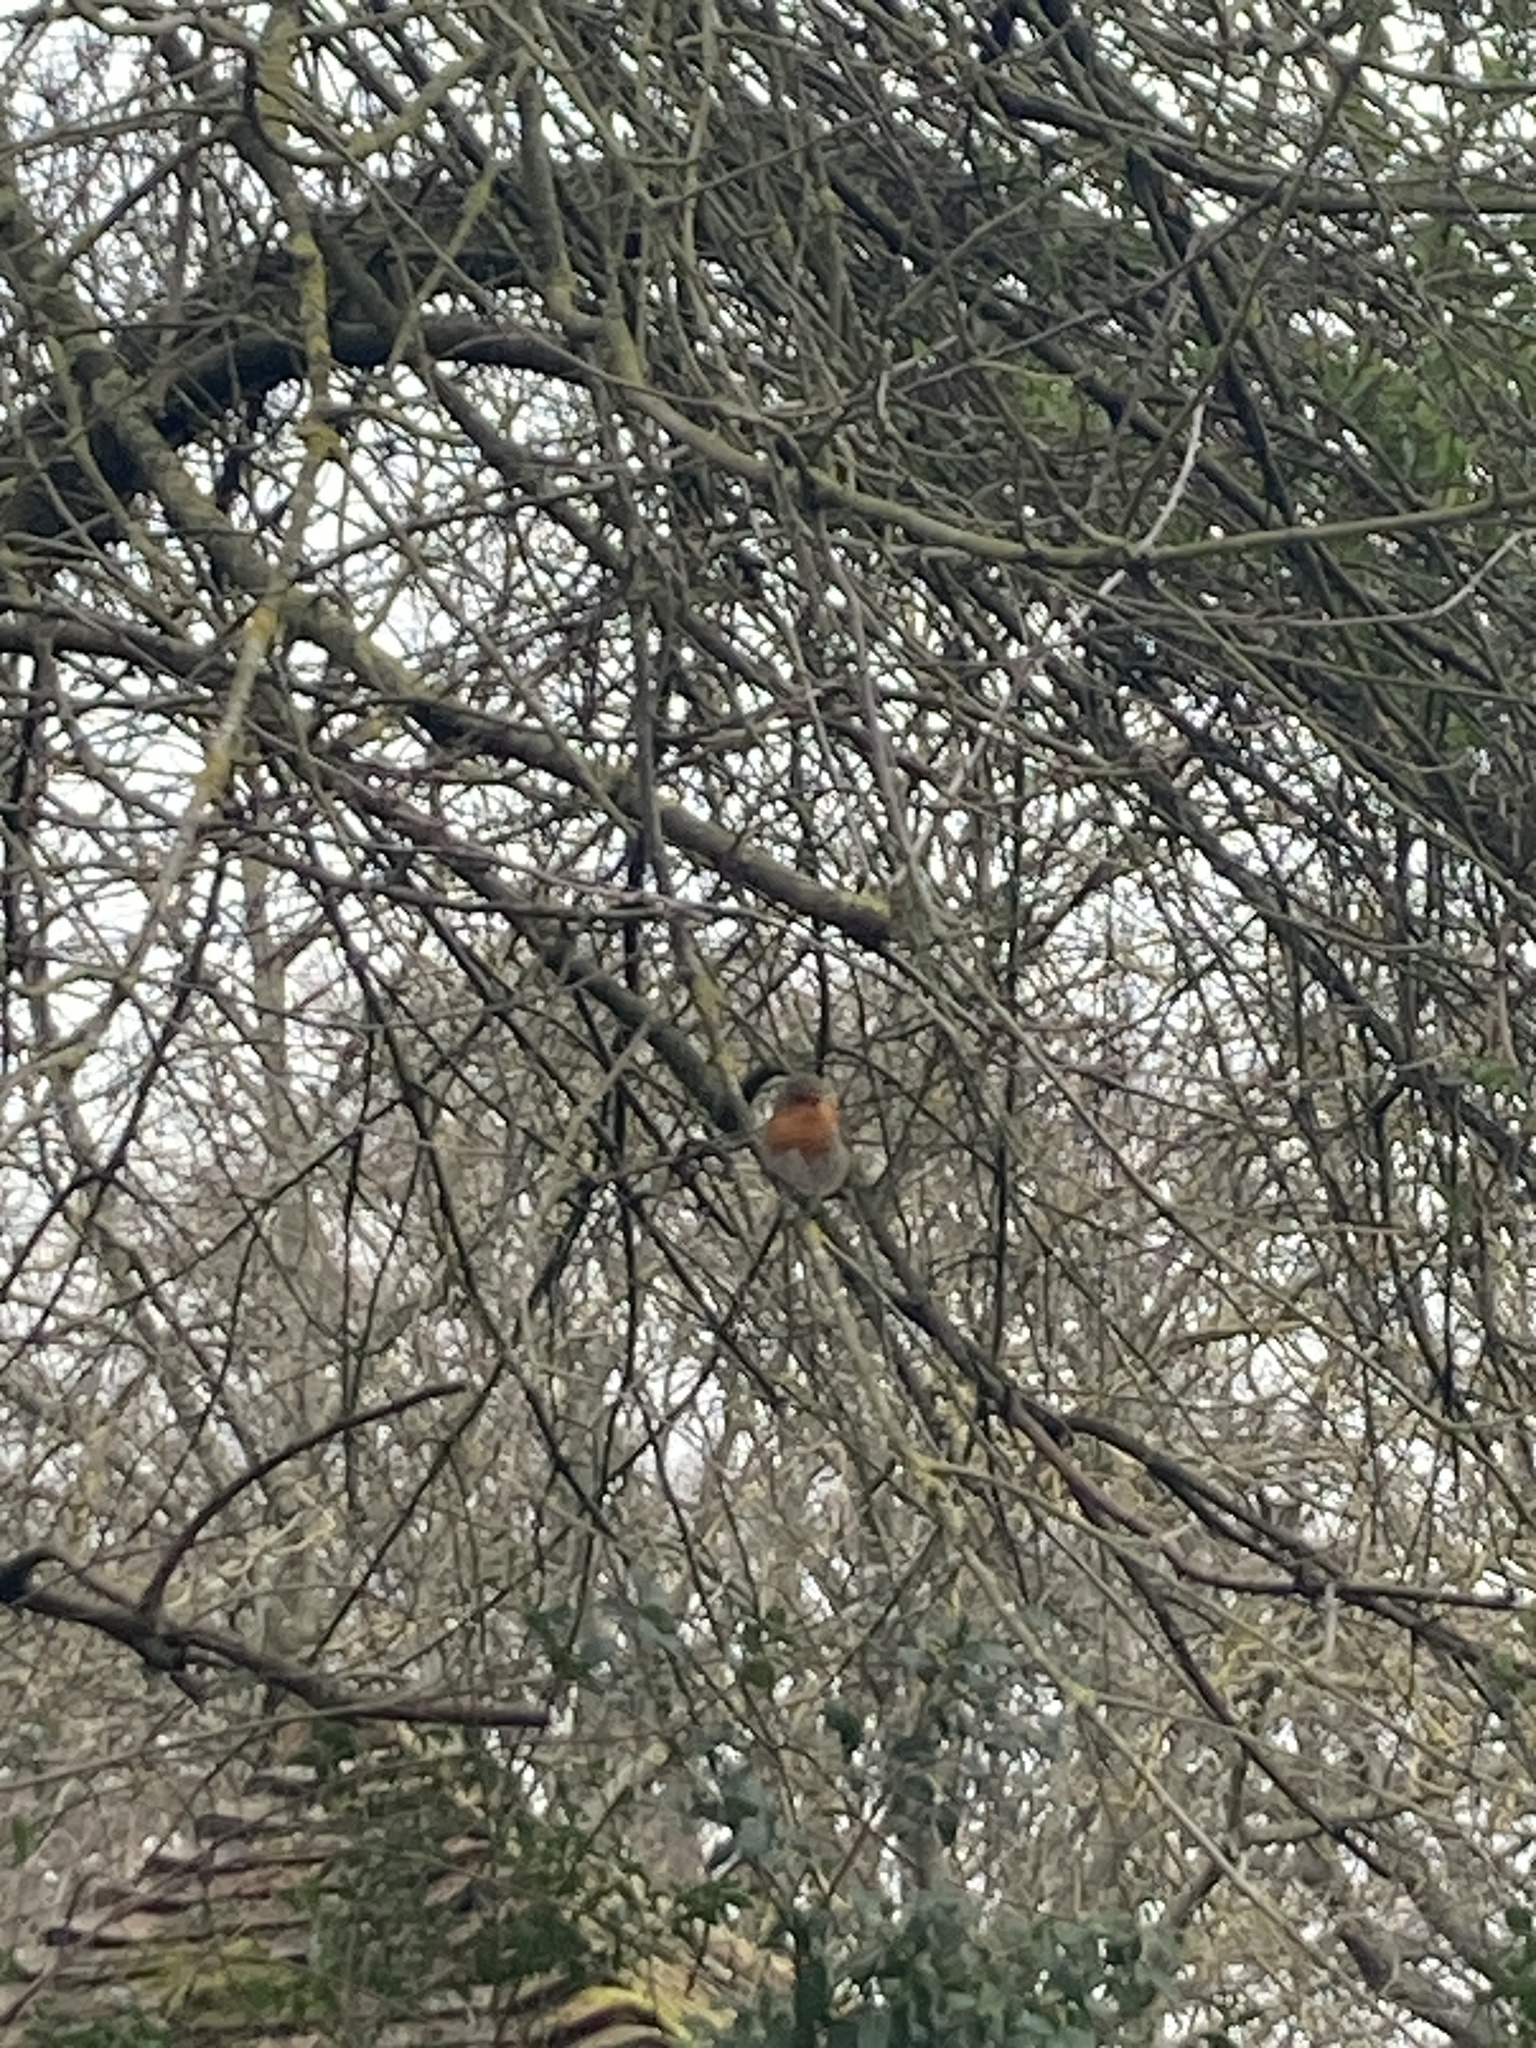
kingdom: Animalia
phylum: Chordata
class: Aves
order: Passeriformes
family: Muscicapidae
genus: Erithacus
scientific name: Erithacus rubecula
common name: European robin
